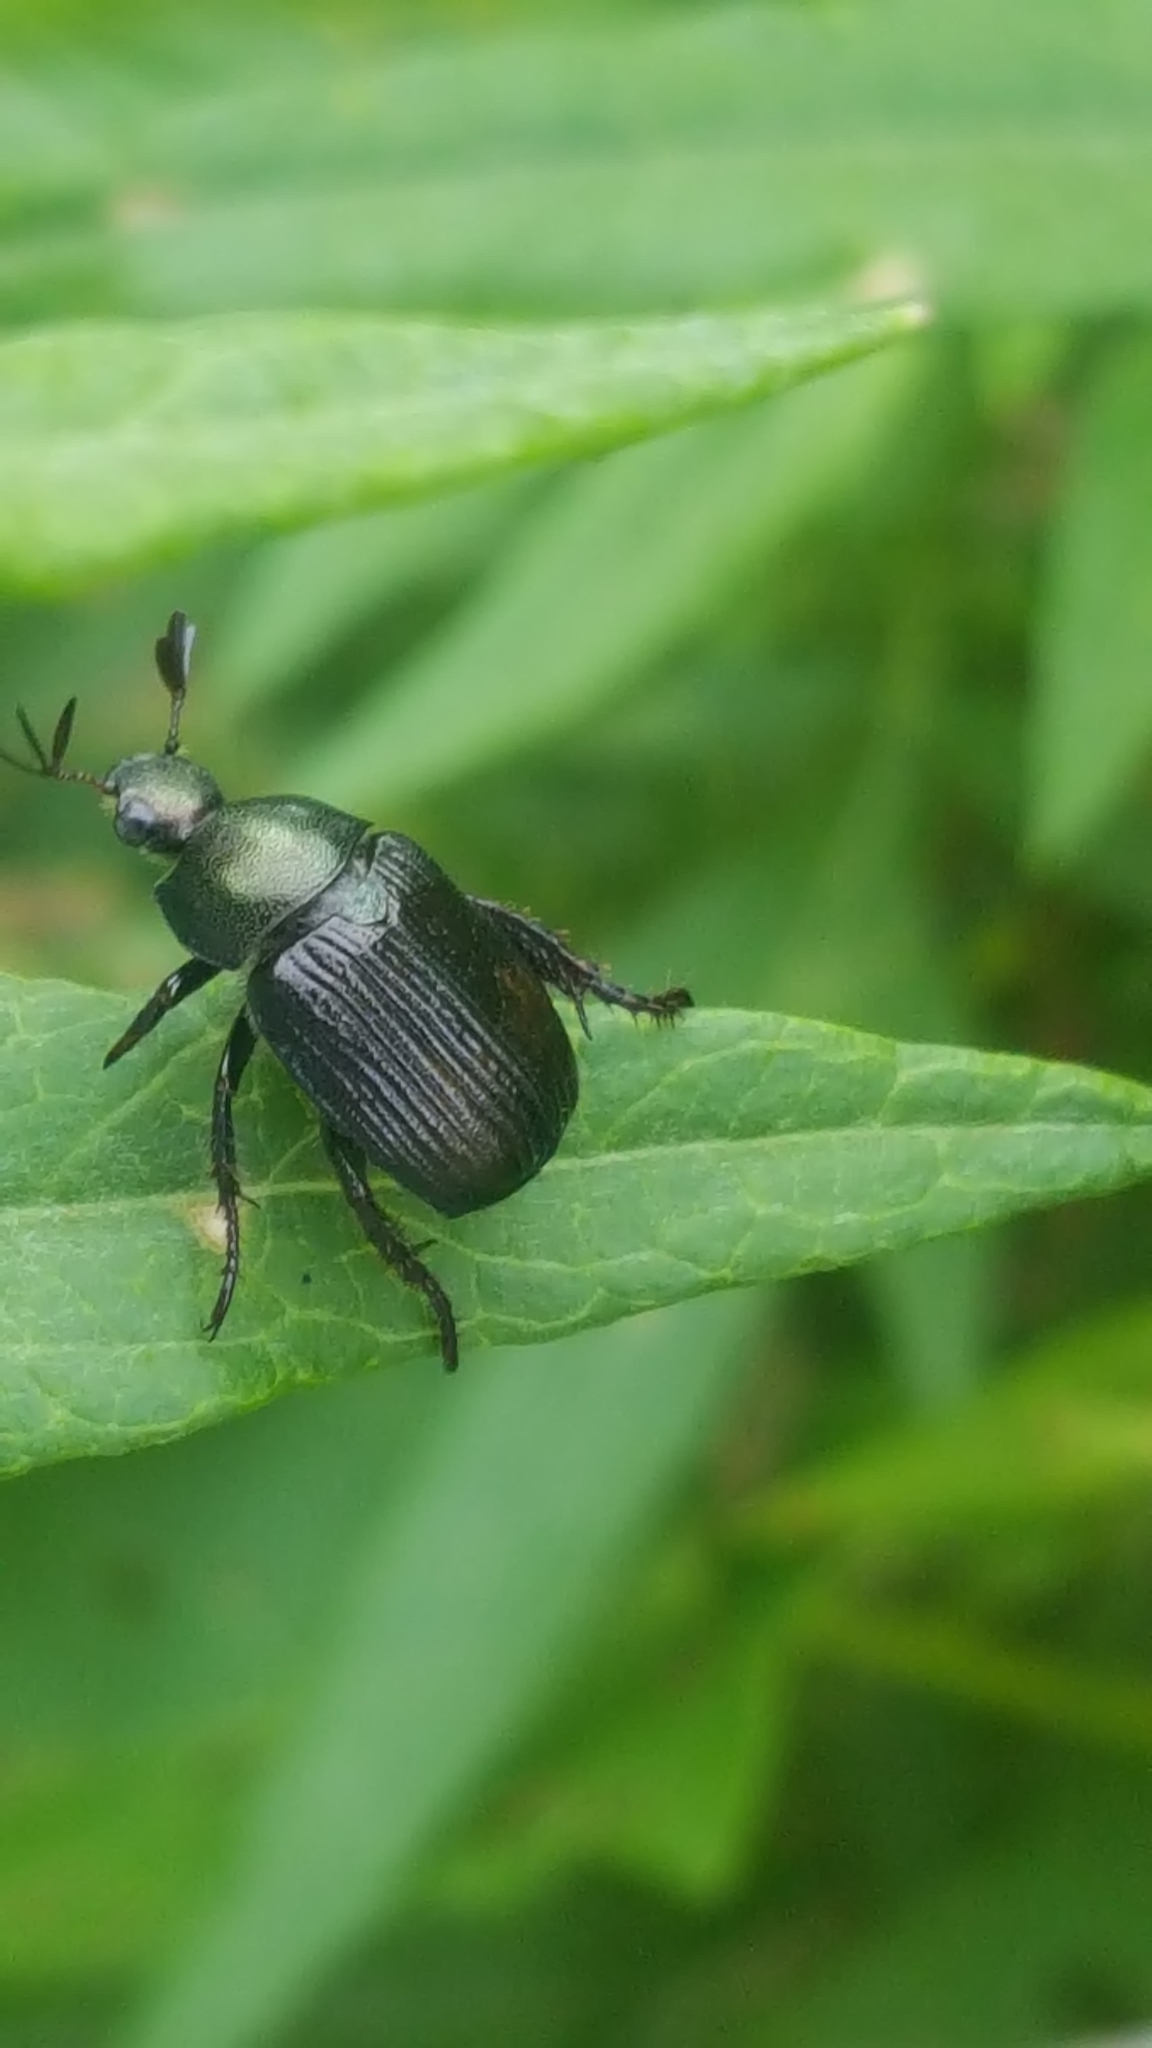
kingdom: Animalia
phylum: Arthropoda
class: Insecta
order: Coleoptera
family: Scarabaeidae
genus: Exomala
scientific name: Exomala orientalis
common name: Oriental beetle
